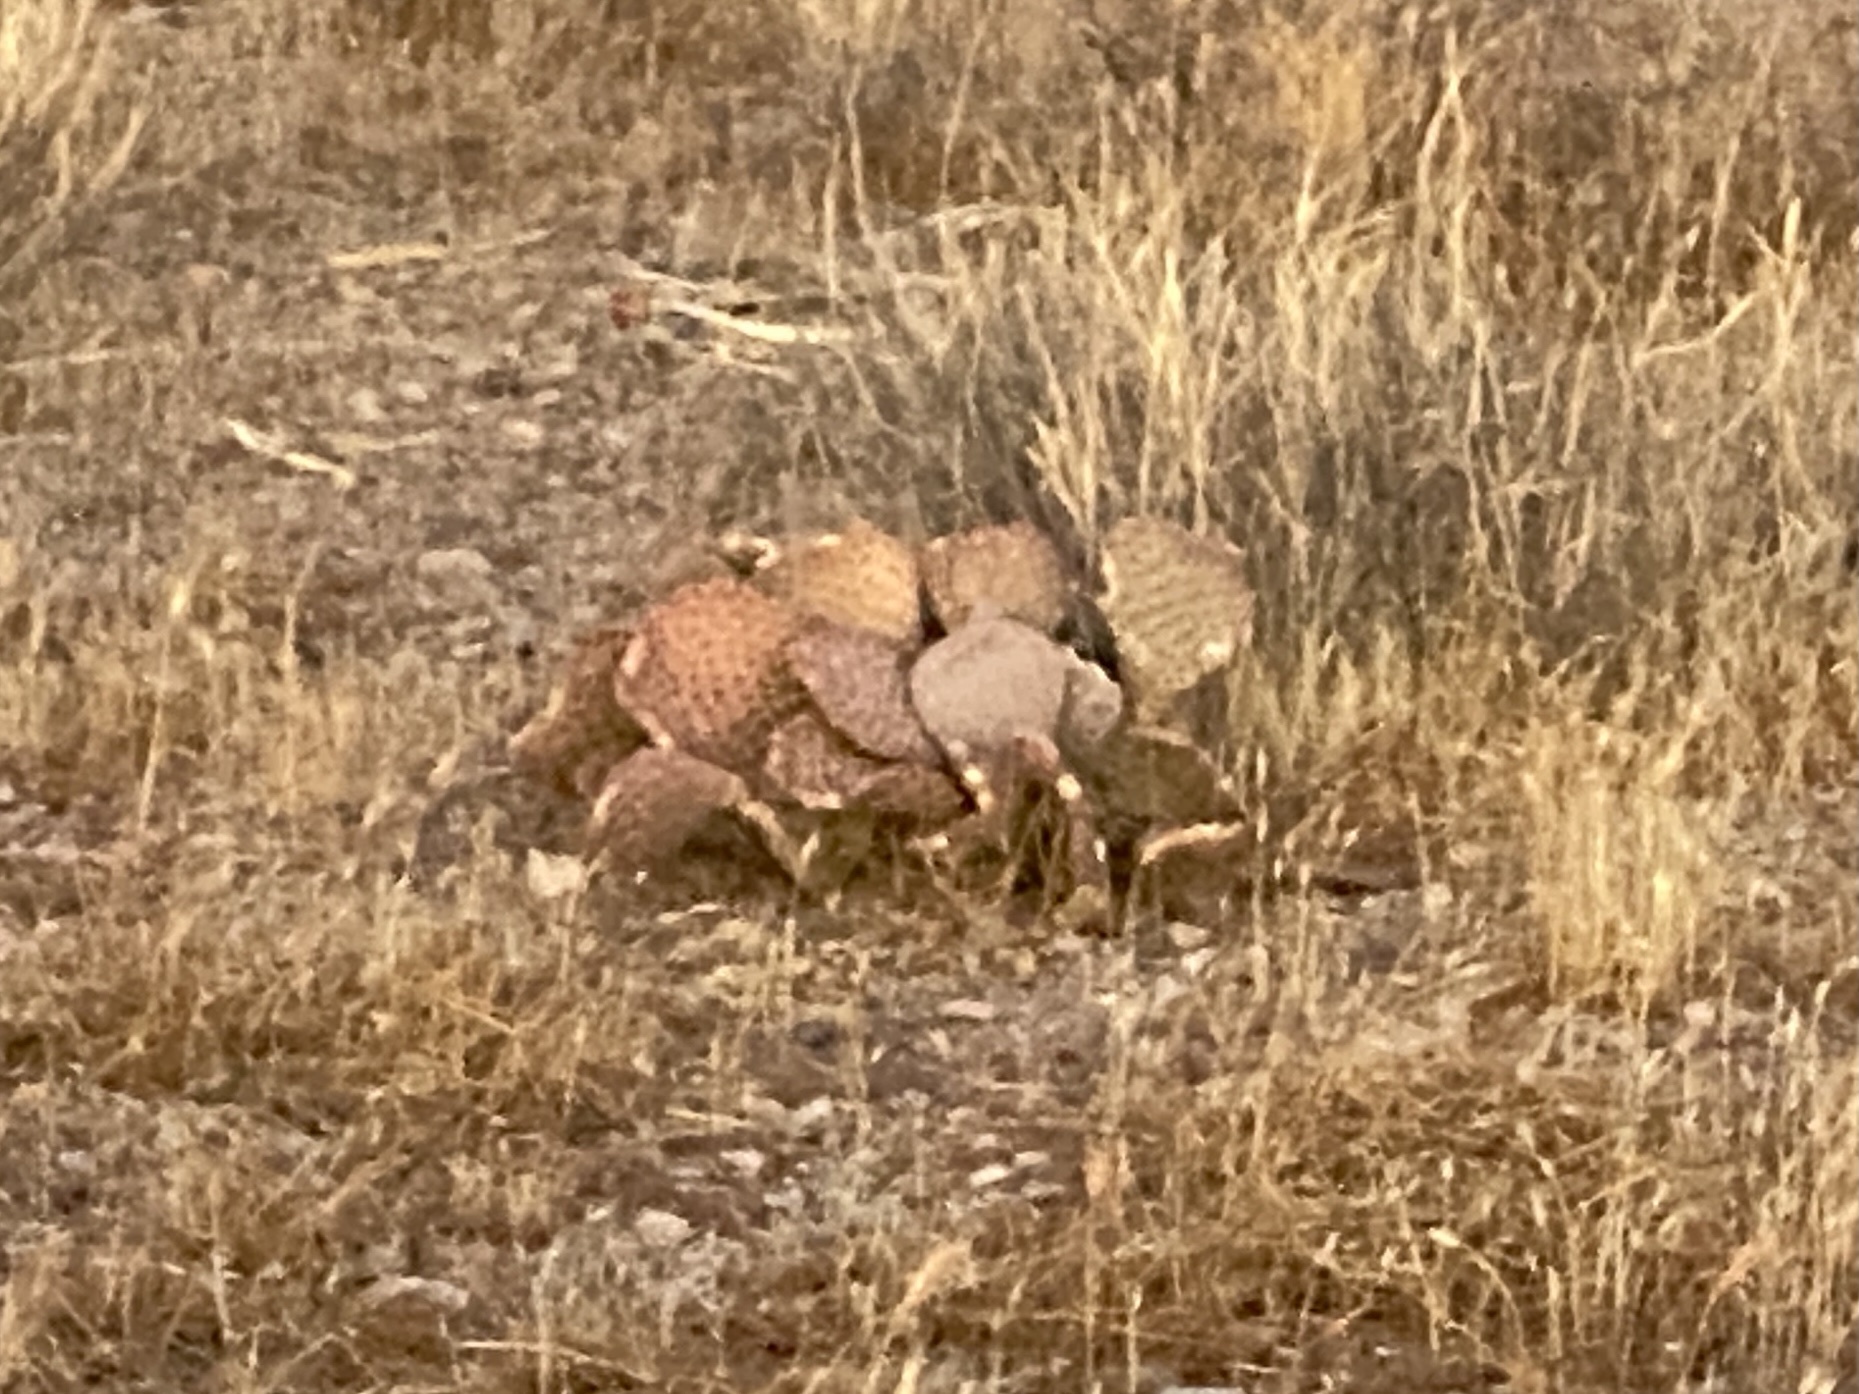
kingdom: Plantae
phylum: Tracheophyta
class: Magnoliopsida
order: Caryophyllales
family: Cactaceae
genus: Opuntia
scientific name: Opuntia basilaris
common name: Beavertail prickly-pear
